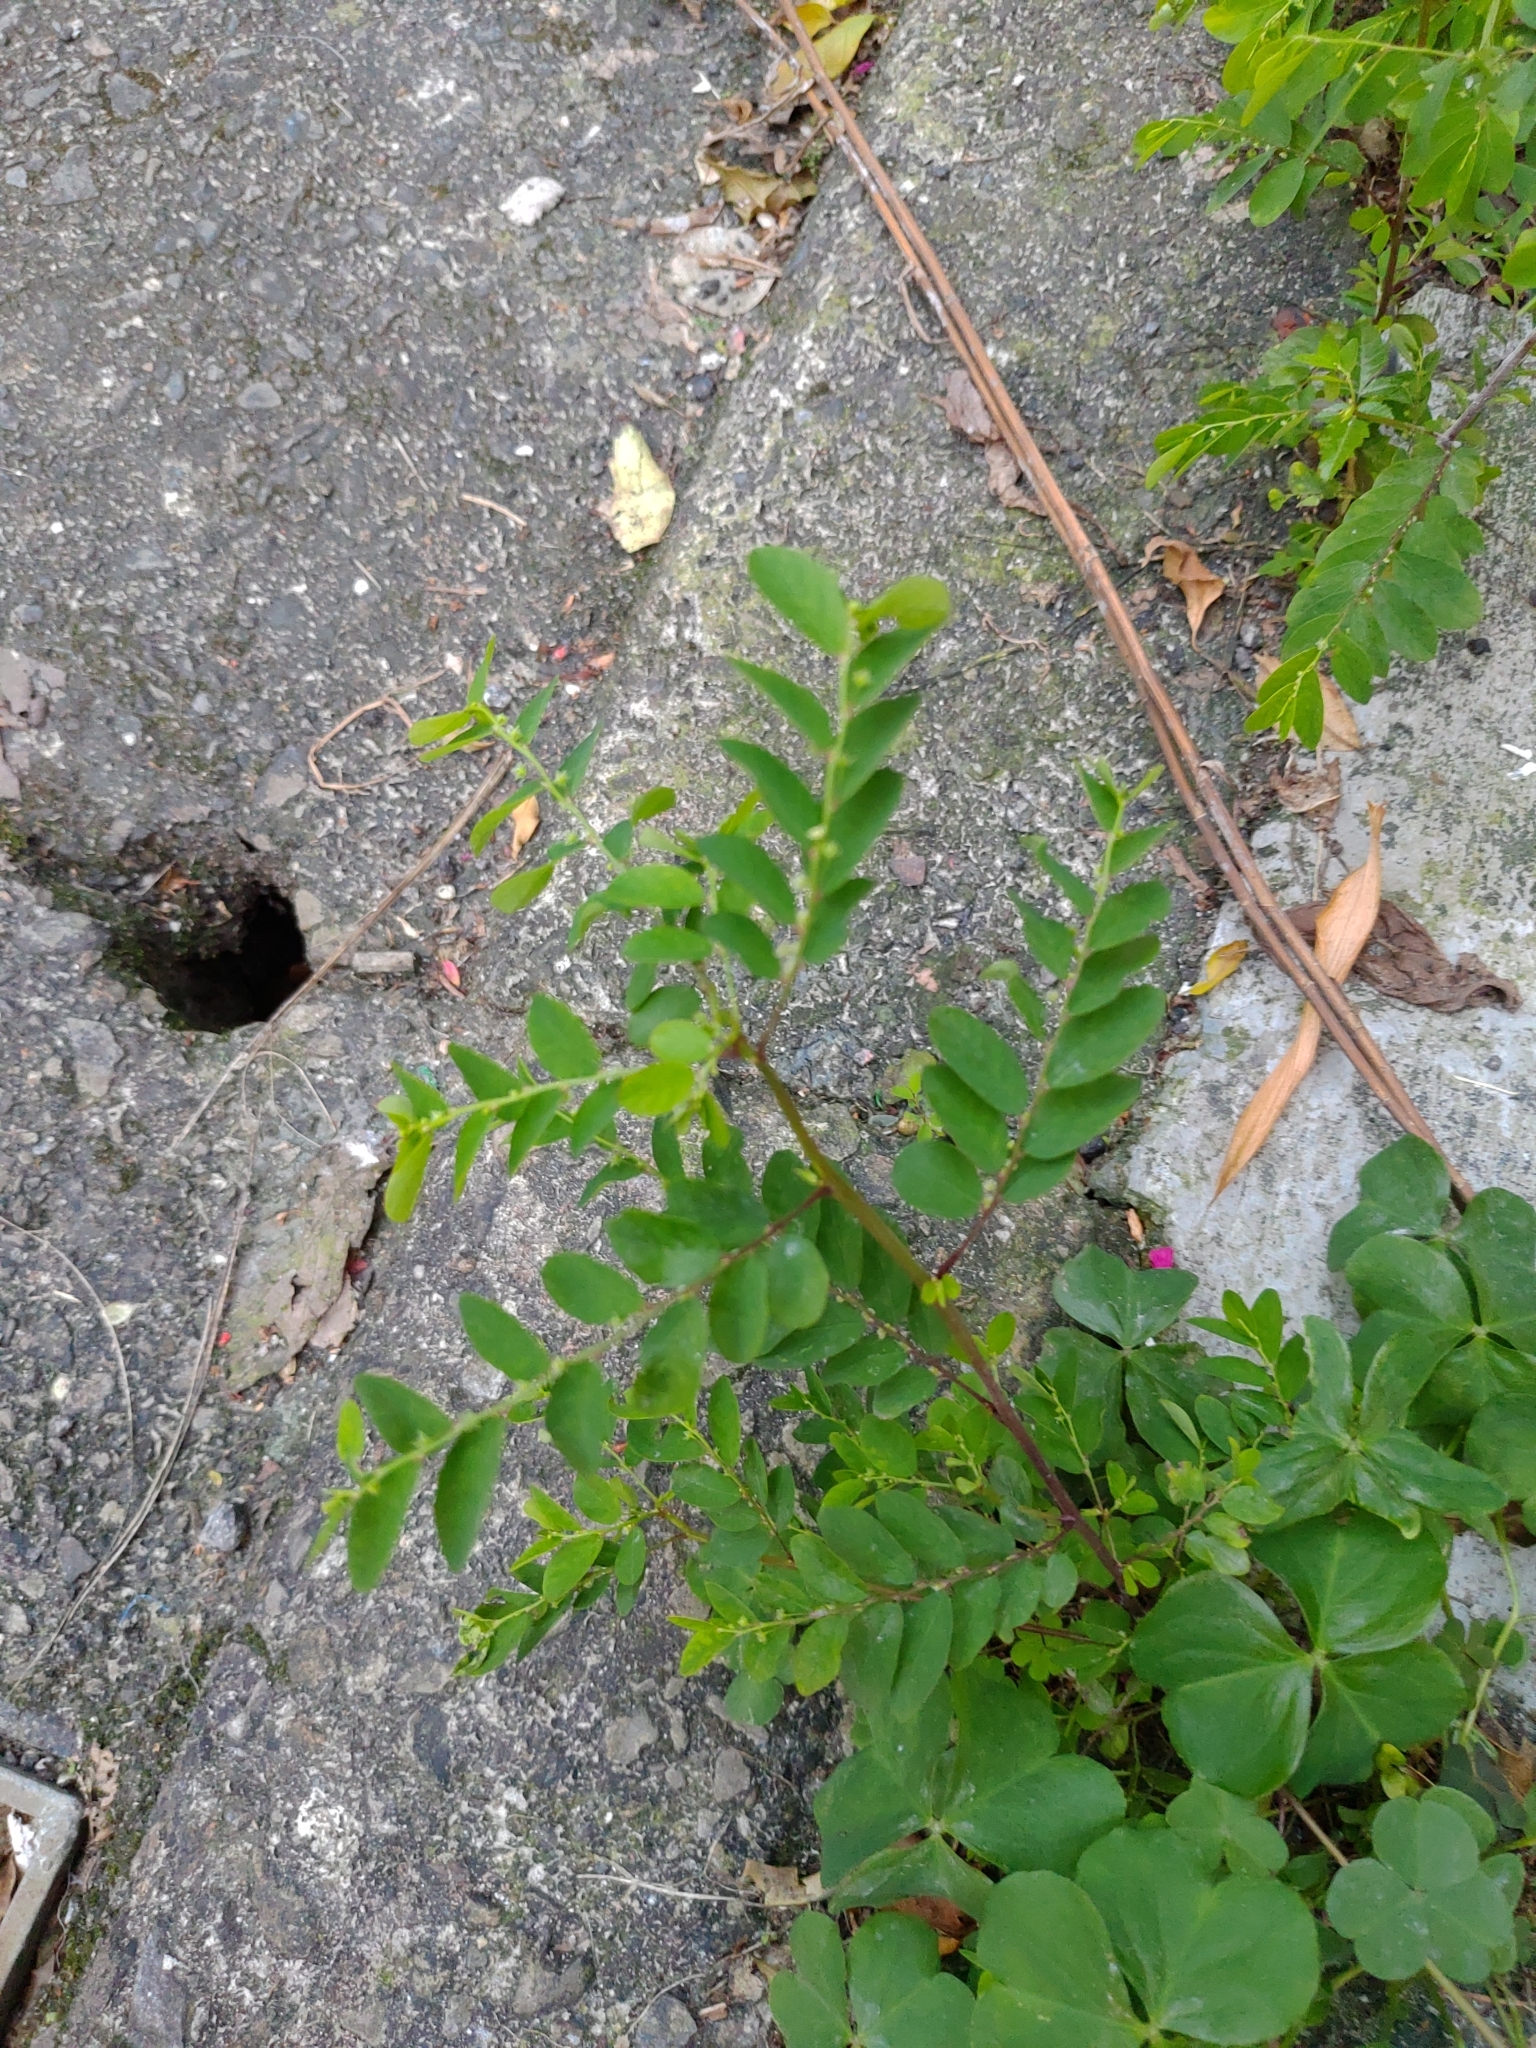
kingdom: Plantae
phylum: Tracheophyta
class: Magnoliopsida
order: Malpighiales
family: Phyllanthaceae
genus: Phyllanthus
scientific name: Phyllanthus tenellus
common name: Mascarene island leaf-flower
